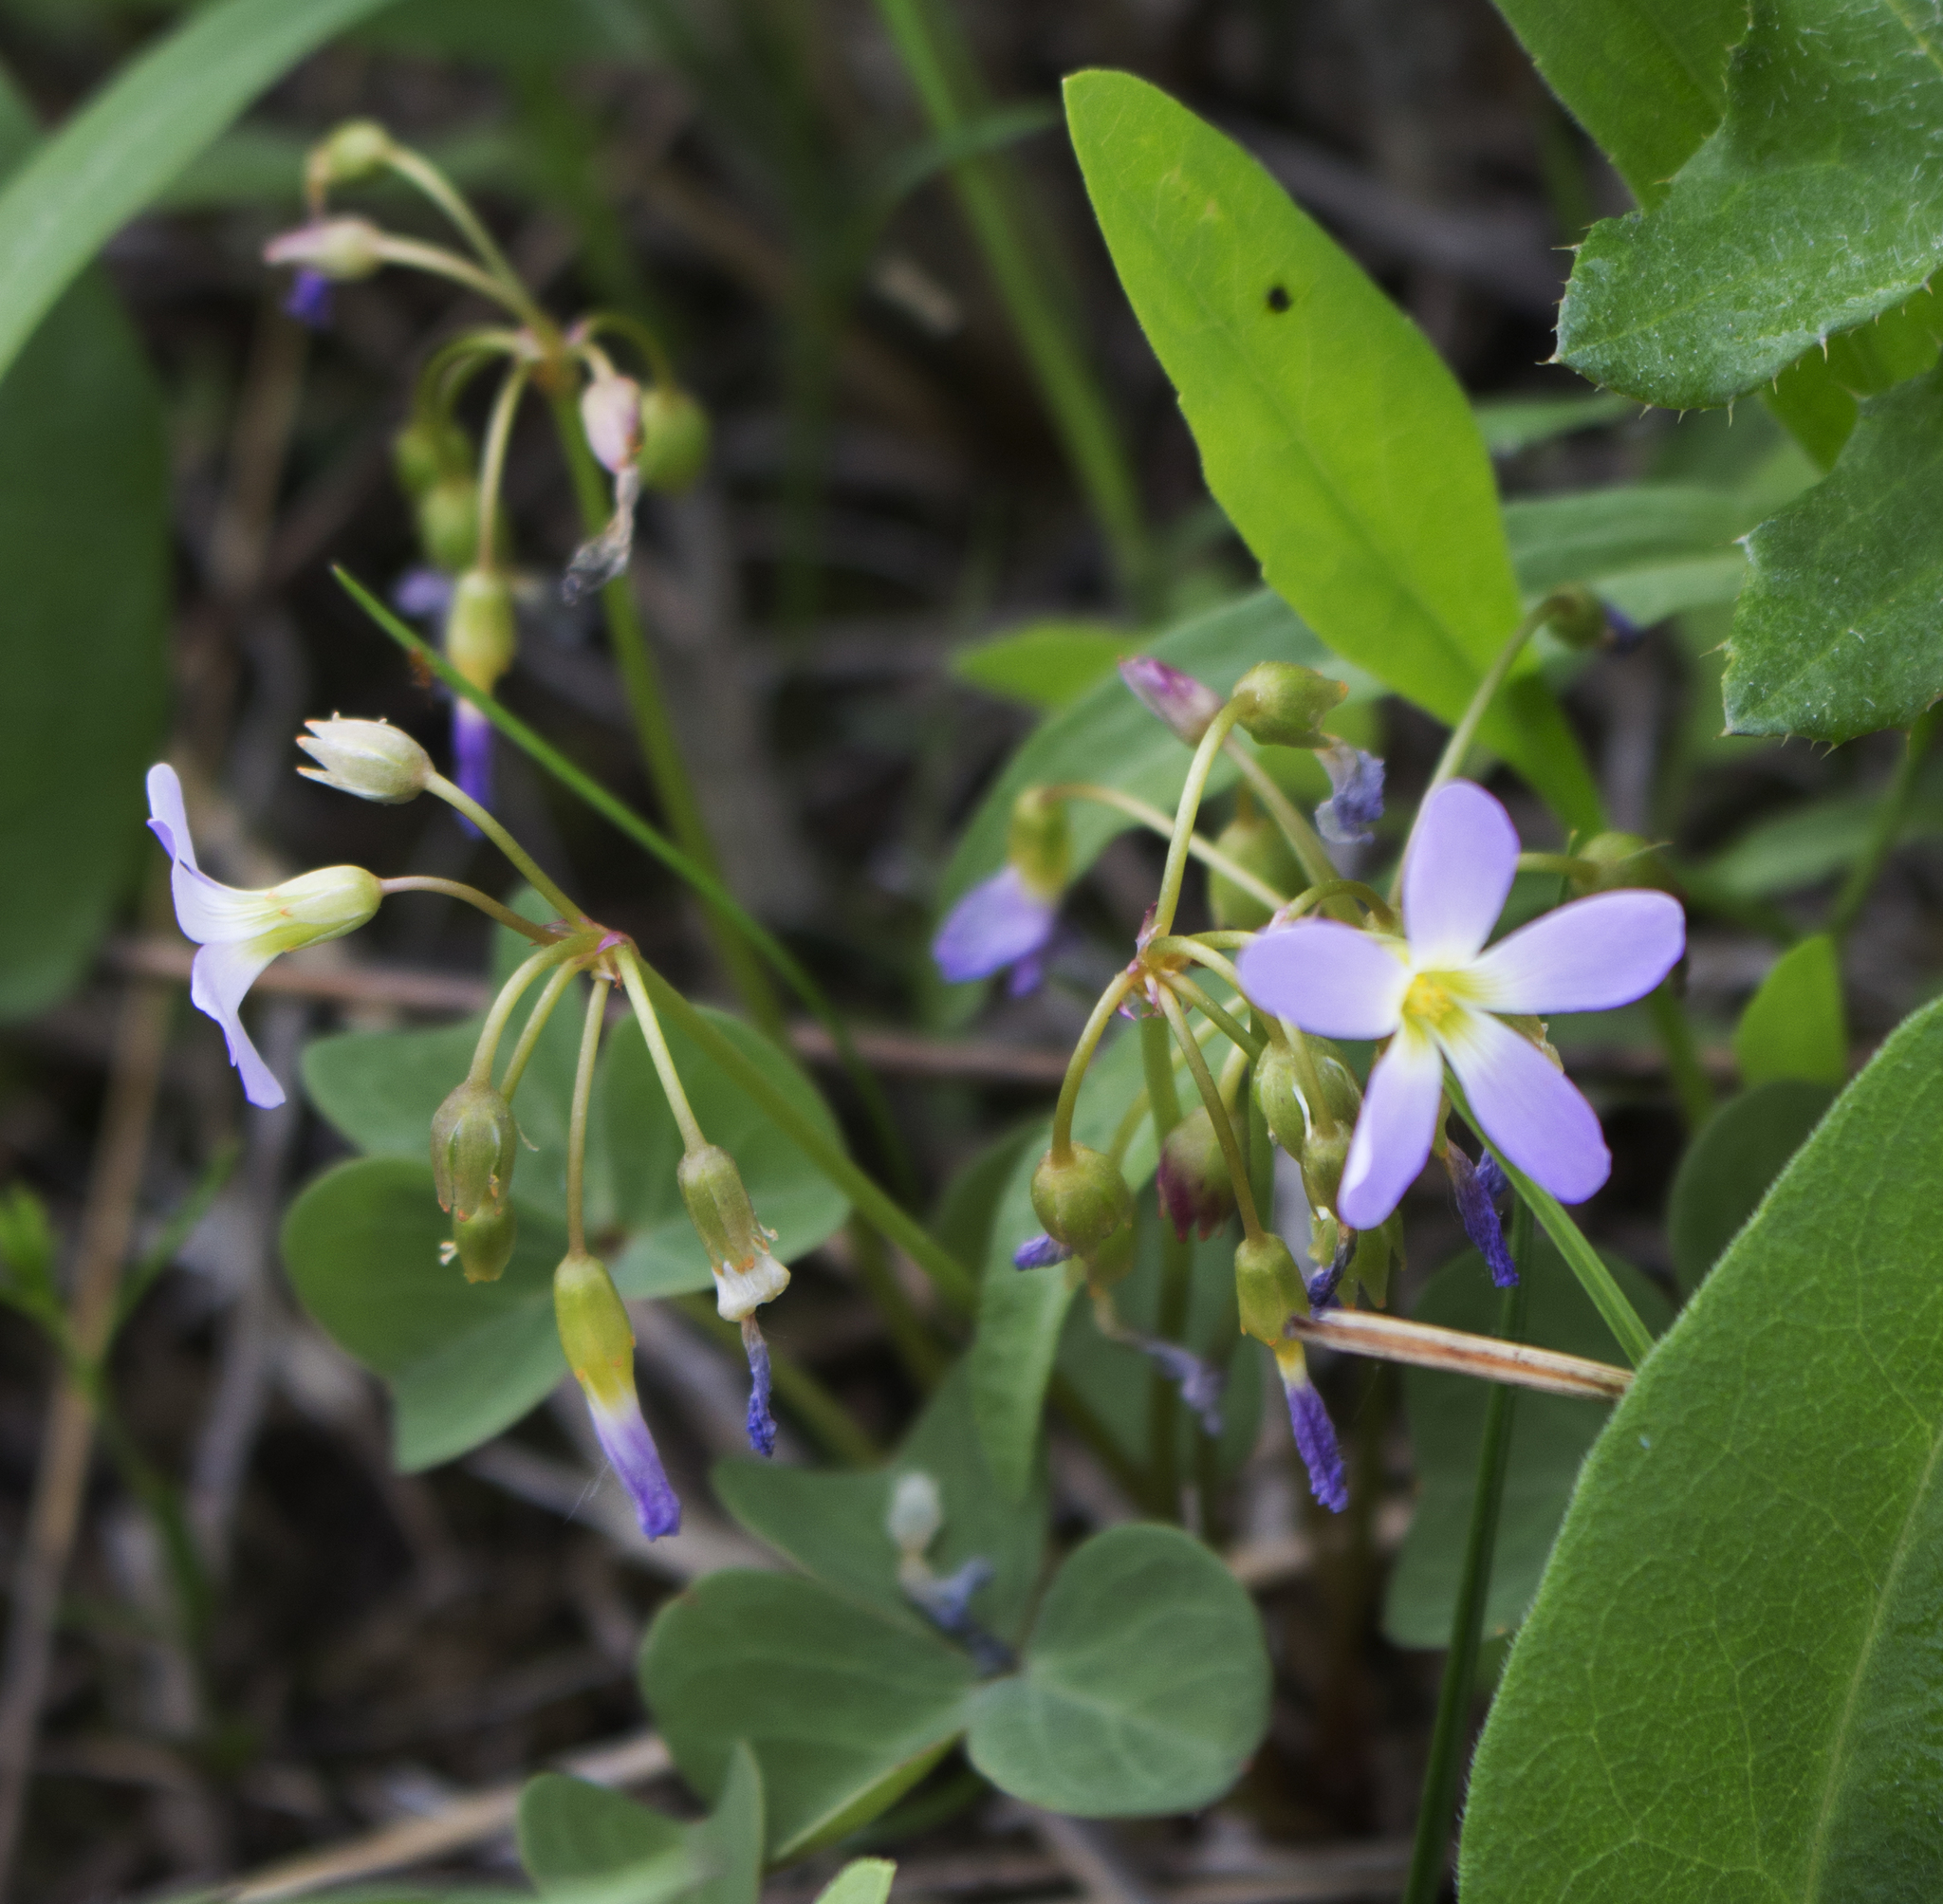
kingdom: Plantae
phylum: Tracheophyta
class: Magnoliopsida
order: Oxalidales
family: Oxalidaceae
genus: Oxalis
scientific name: Oxalis violacea
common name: Violet wood-sorrel
